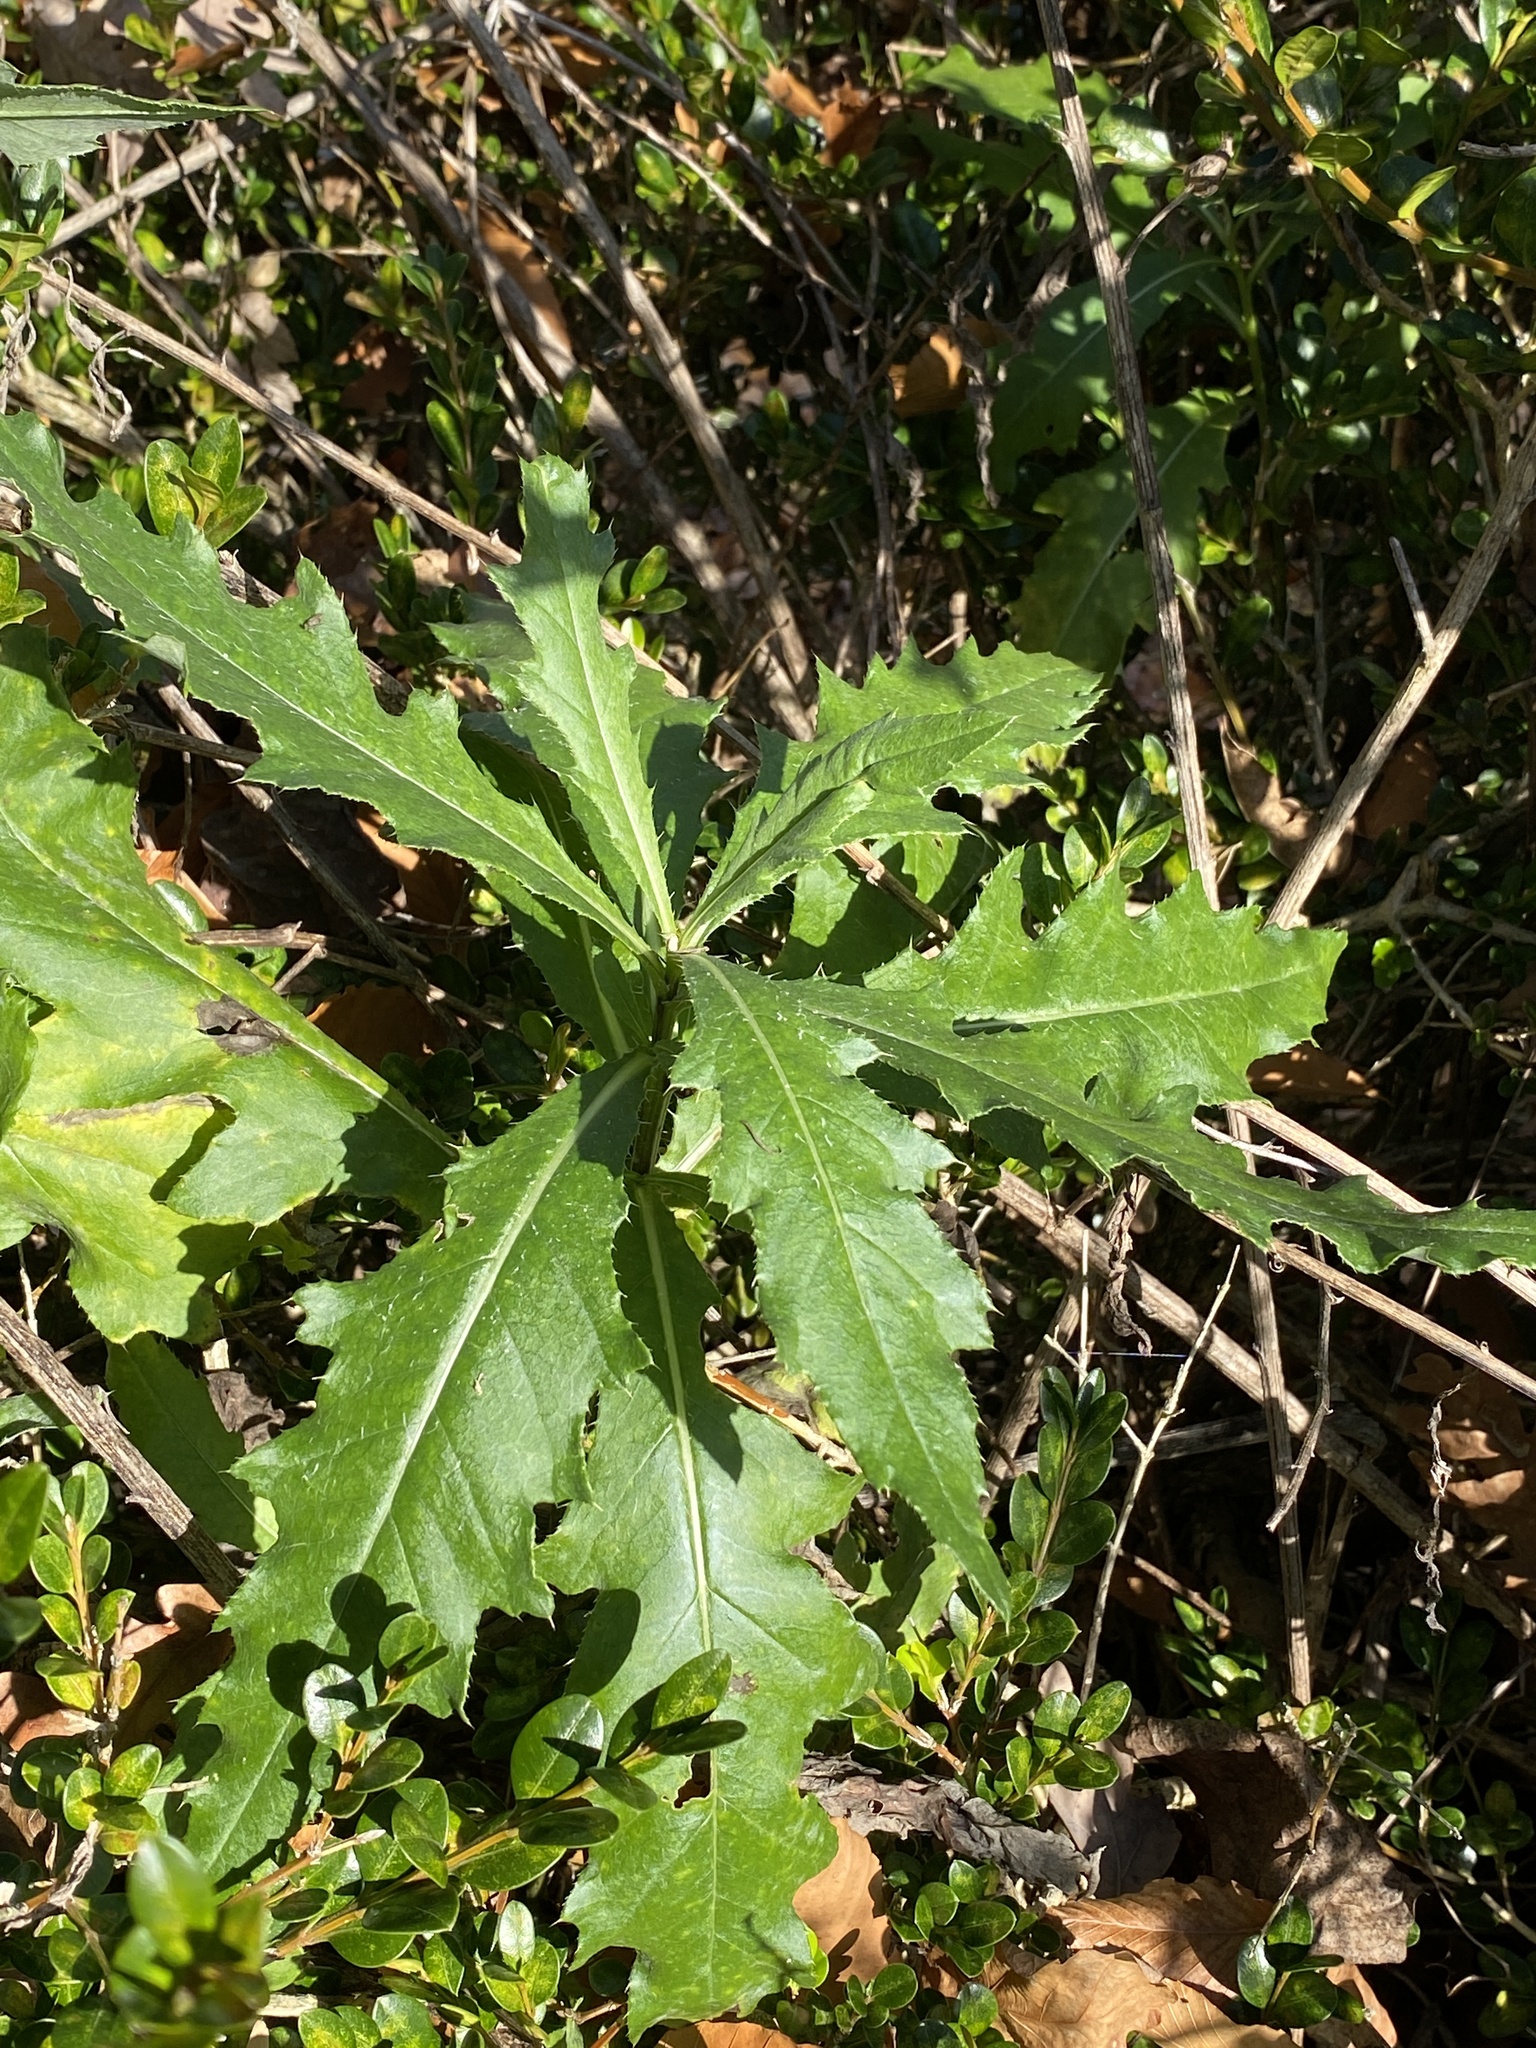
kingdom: Plantae
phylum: Tracheophyta
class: Magnoliopsida
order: Asterales
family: Asteraceae
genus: Cirsium
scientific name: Cirsium arvense
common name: Creeping thistle
